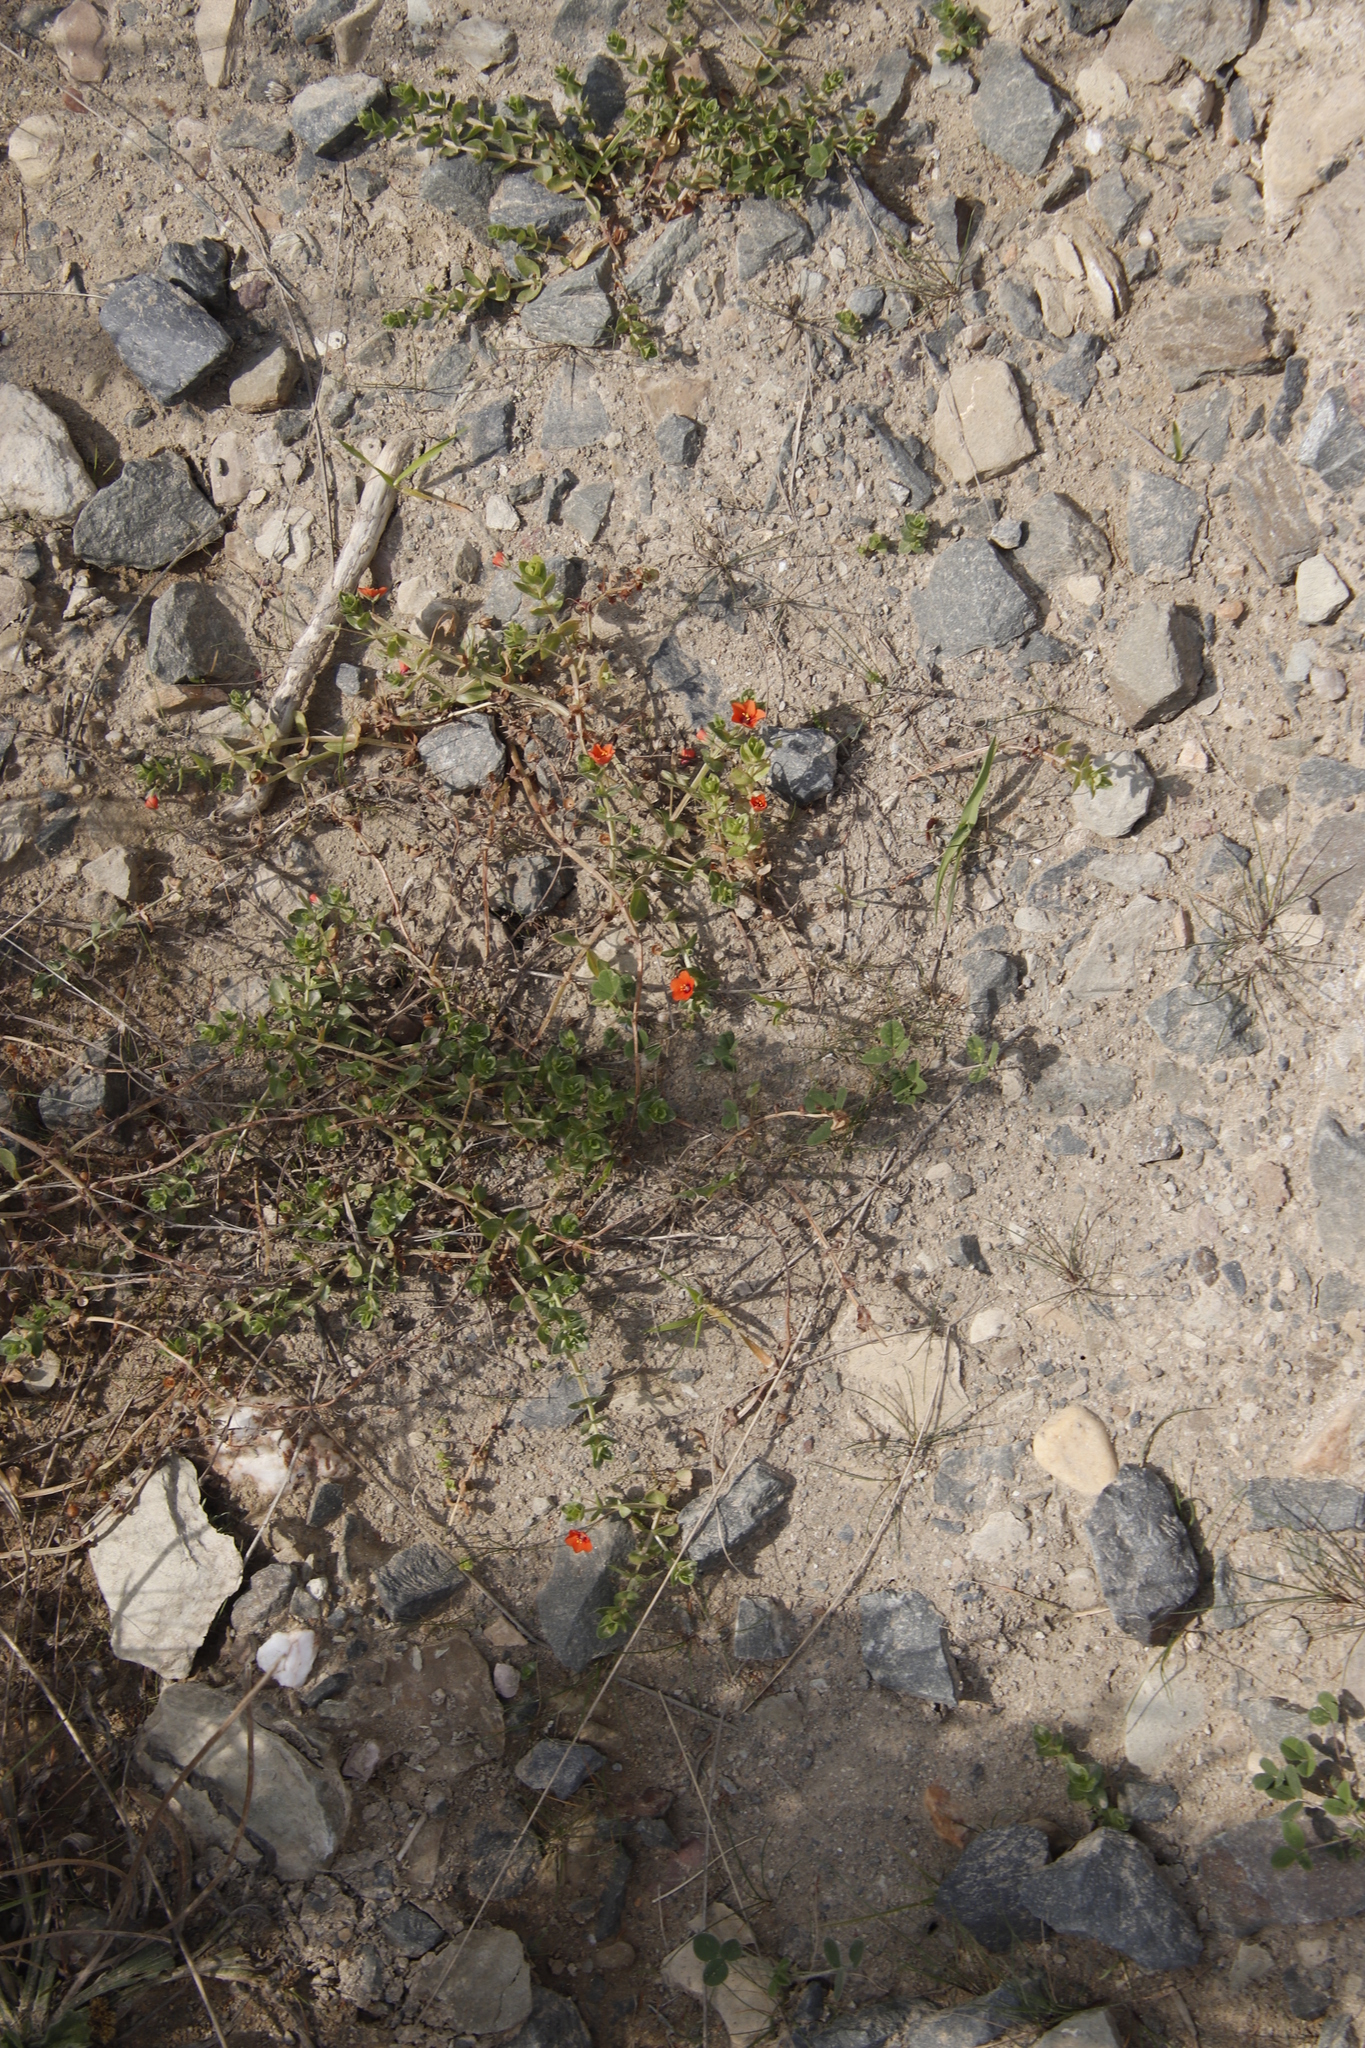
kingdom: Plantae
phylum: Tracheophyta
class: Magnoliopsida
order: Ericales
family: Primulaceae
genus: Lysimachia
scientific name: Lysimachia arvensis
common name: Scarlet pimpernel
